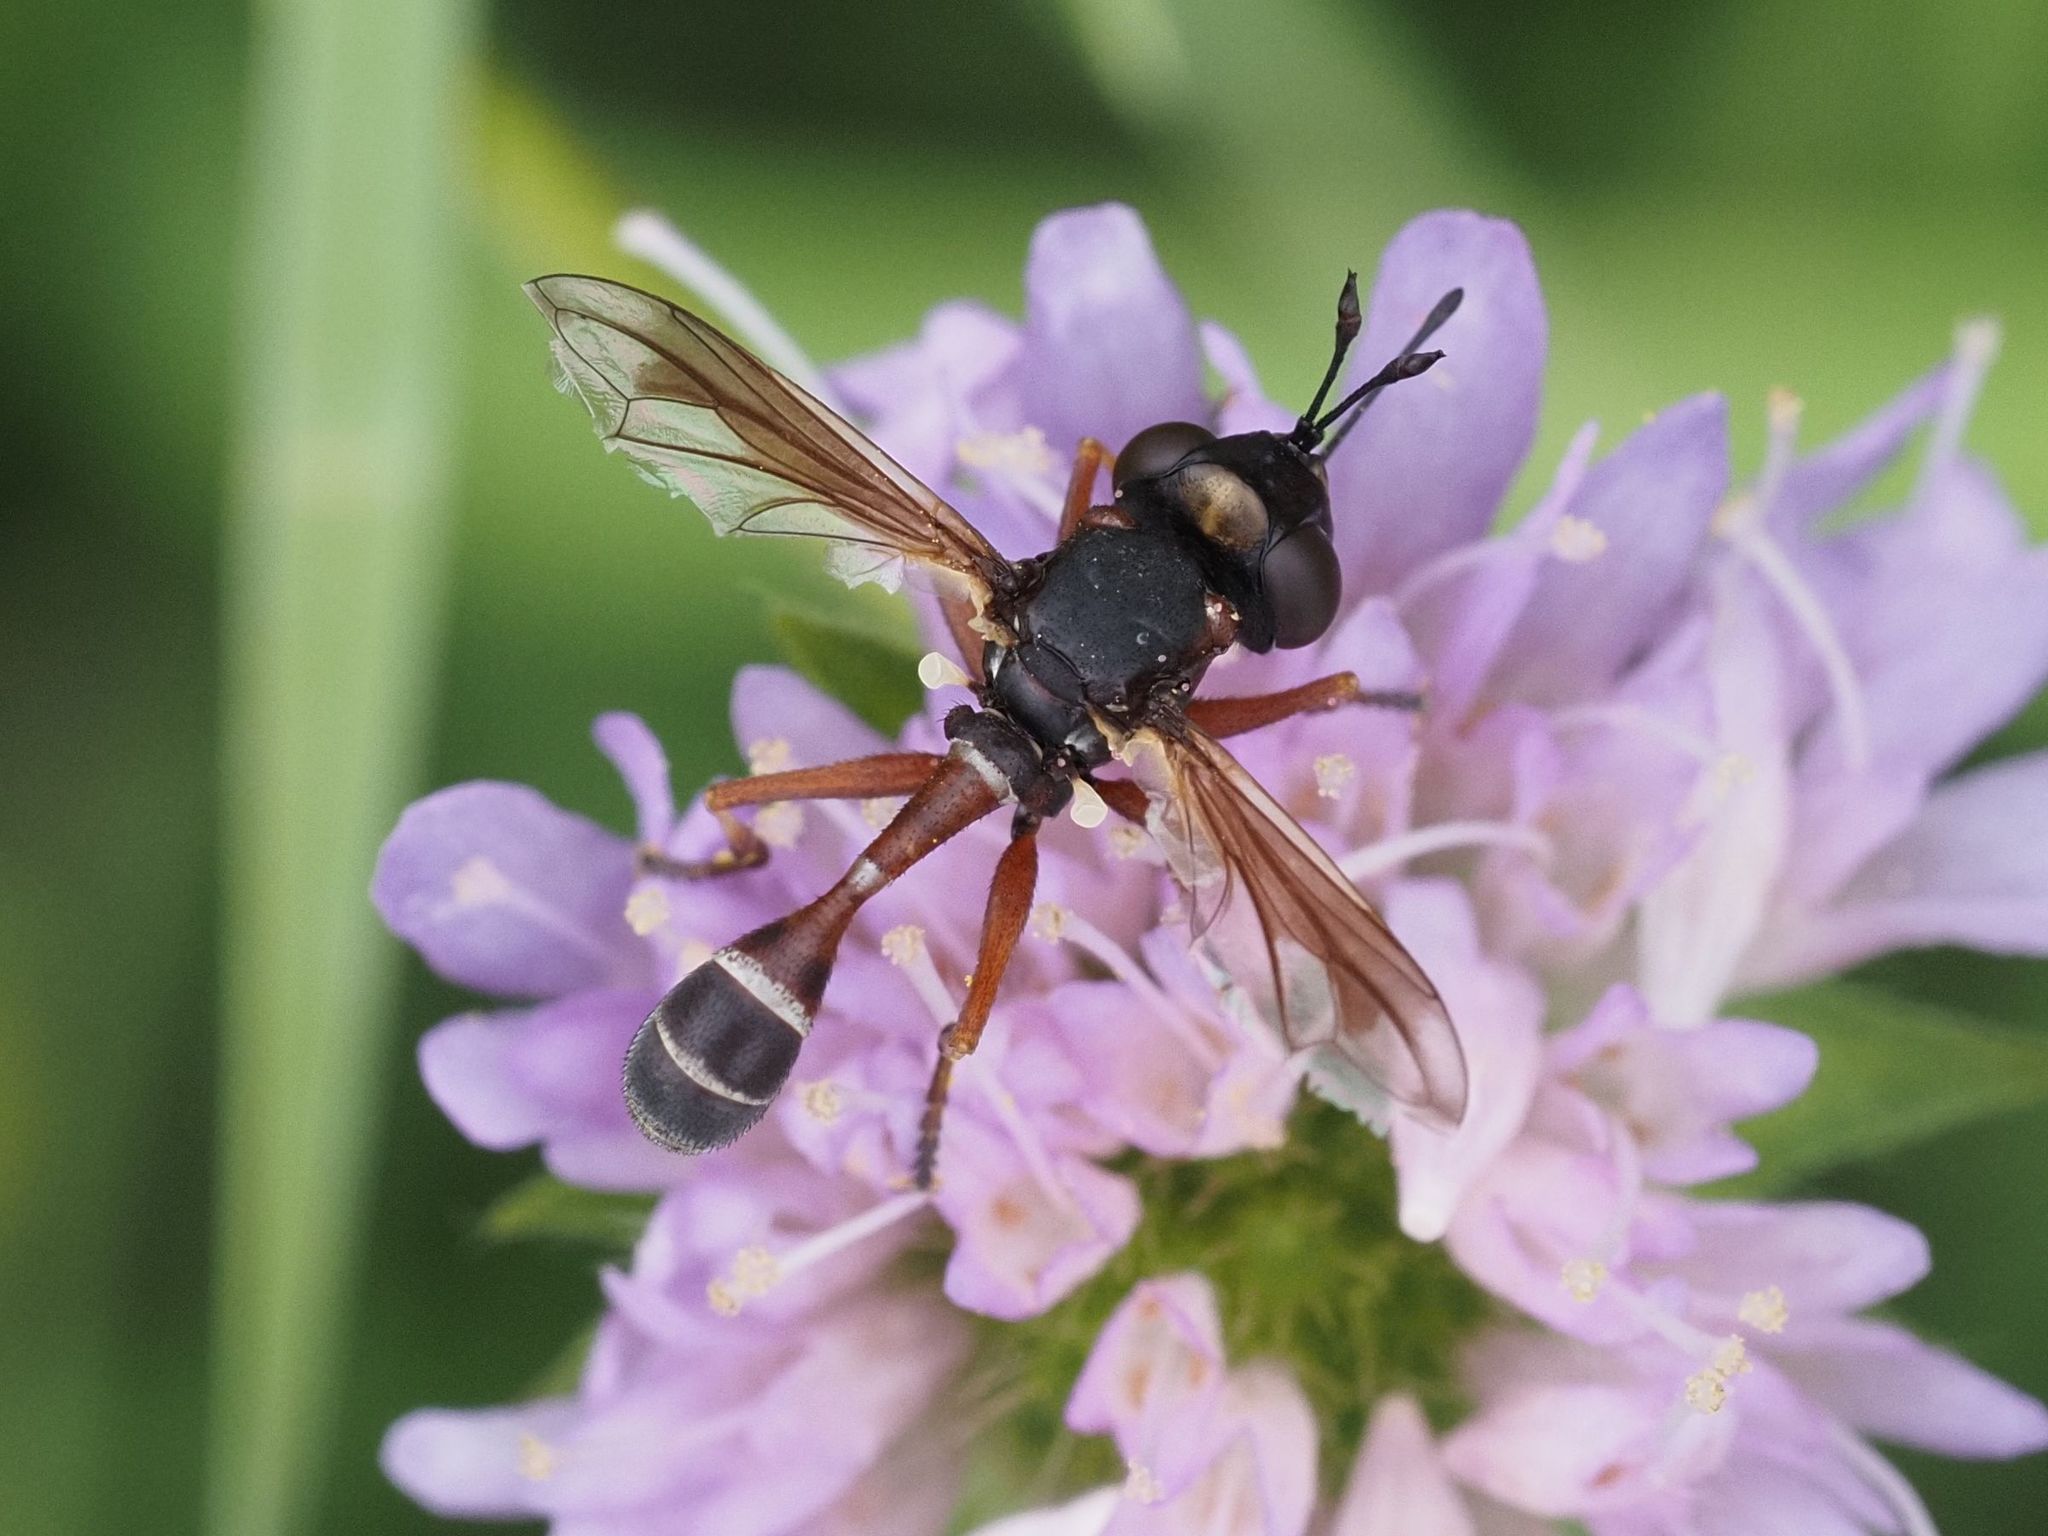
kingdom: Animalia
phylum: Arthropoda
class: Insecta
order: Diptera
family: Conopidae
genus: Physocephala
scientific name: Physocephala rufipes
